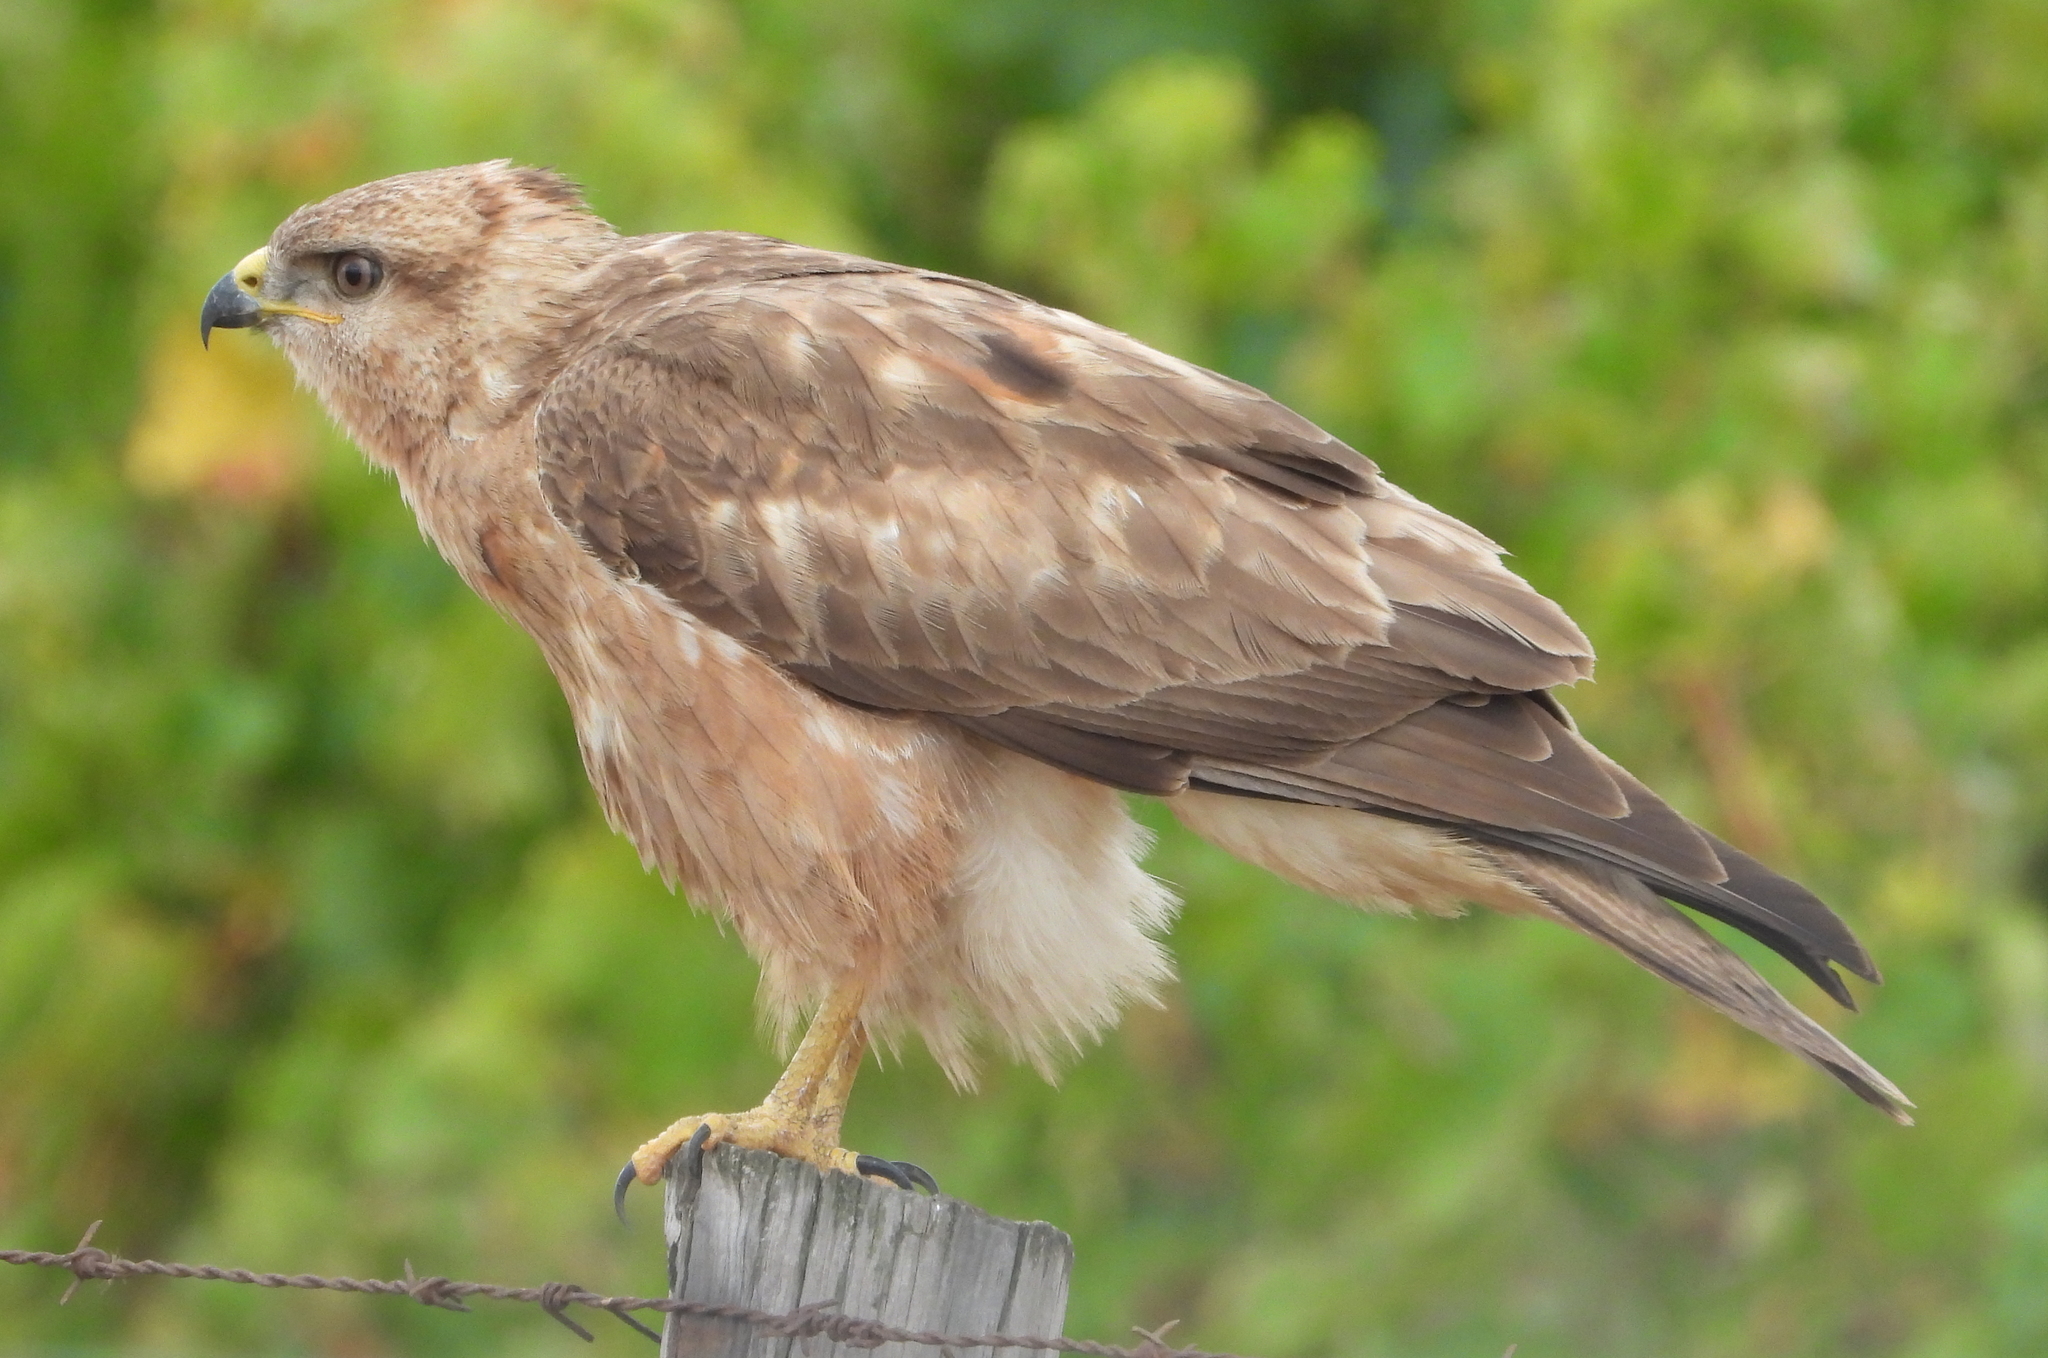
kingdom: Animalia
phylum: Chordata
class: Aves
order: Accipitriformes
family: Accipitridae
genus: Buteo
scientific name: Buteo buteo
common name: Common buzzard
